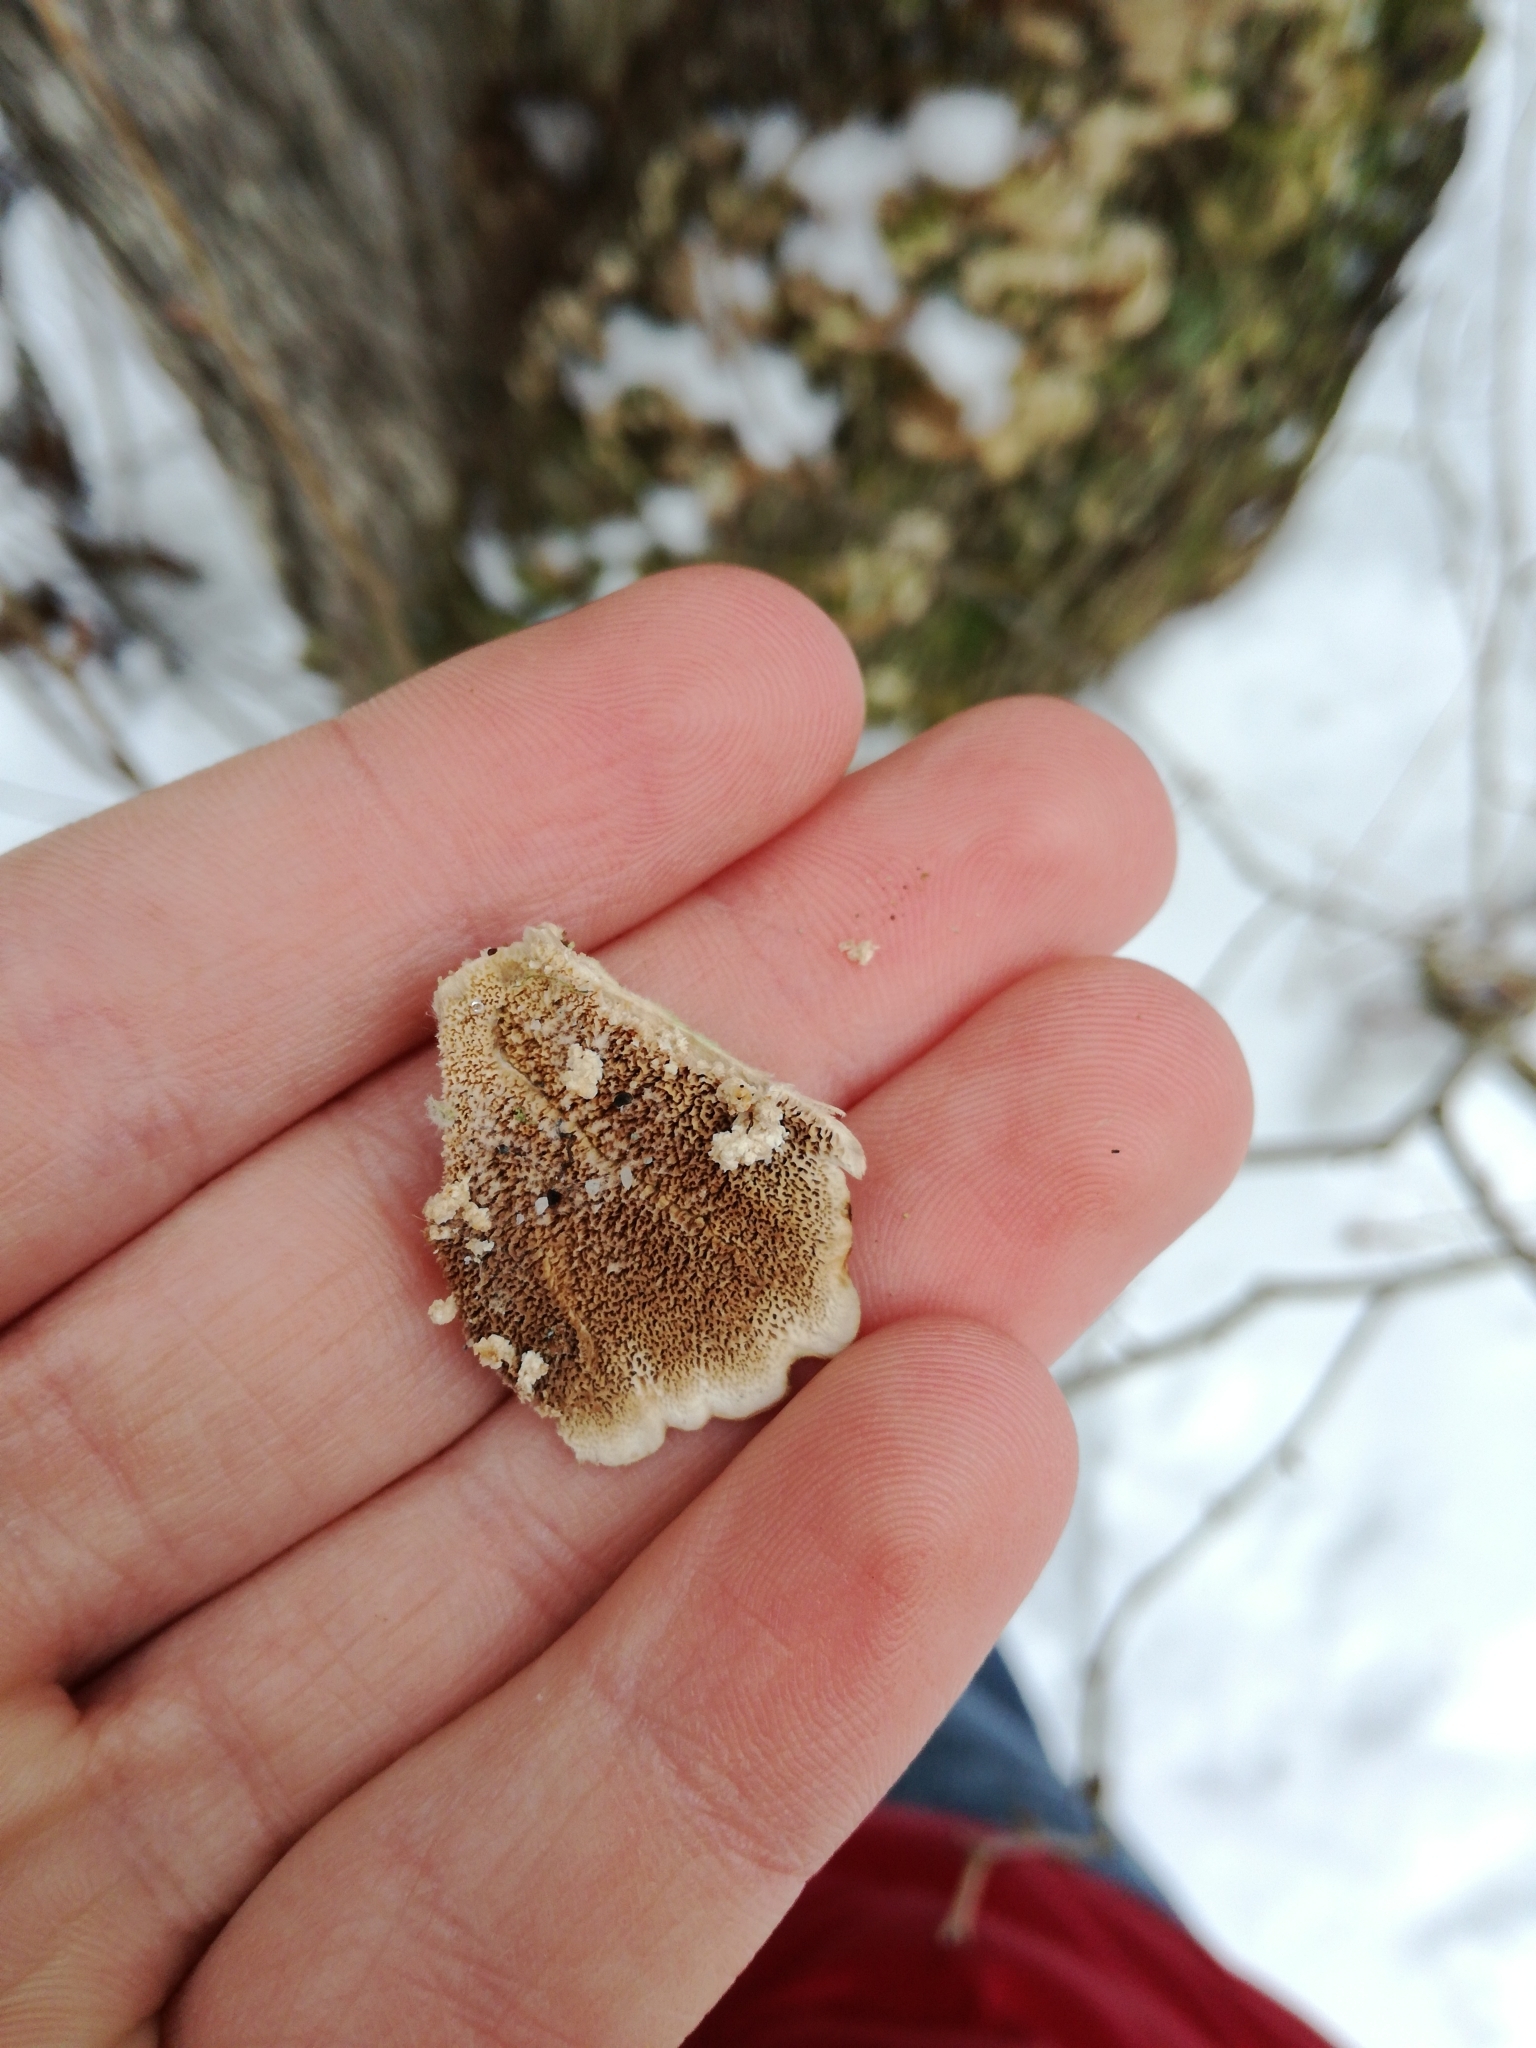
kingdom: Fungi
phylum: Basidiomycota
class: Agaricomycetes
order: Hymenochaetales
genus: Trichaptum
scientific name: Trichaptum biforme
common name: Violet-toothed polypore
